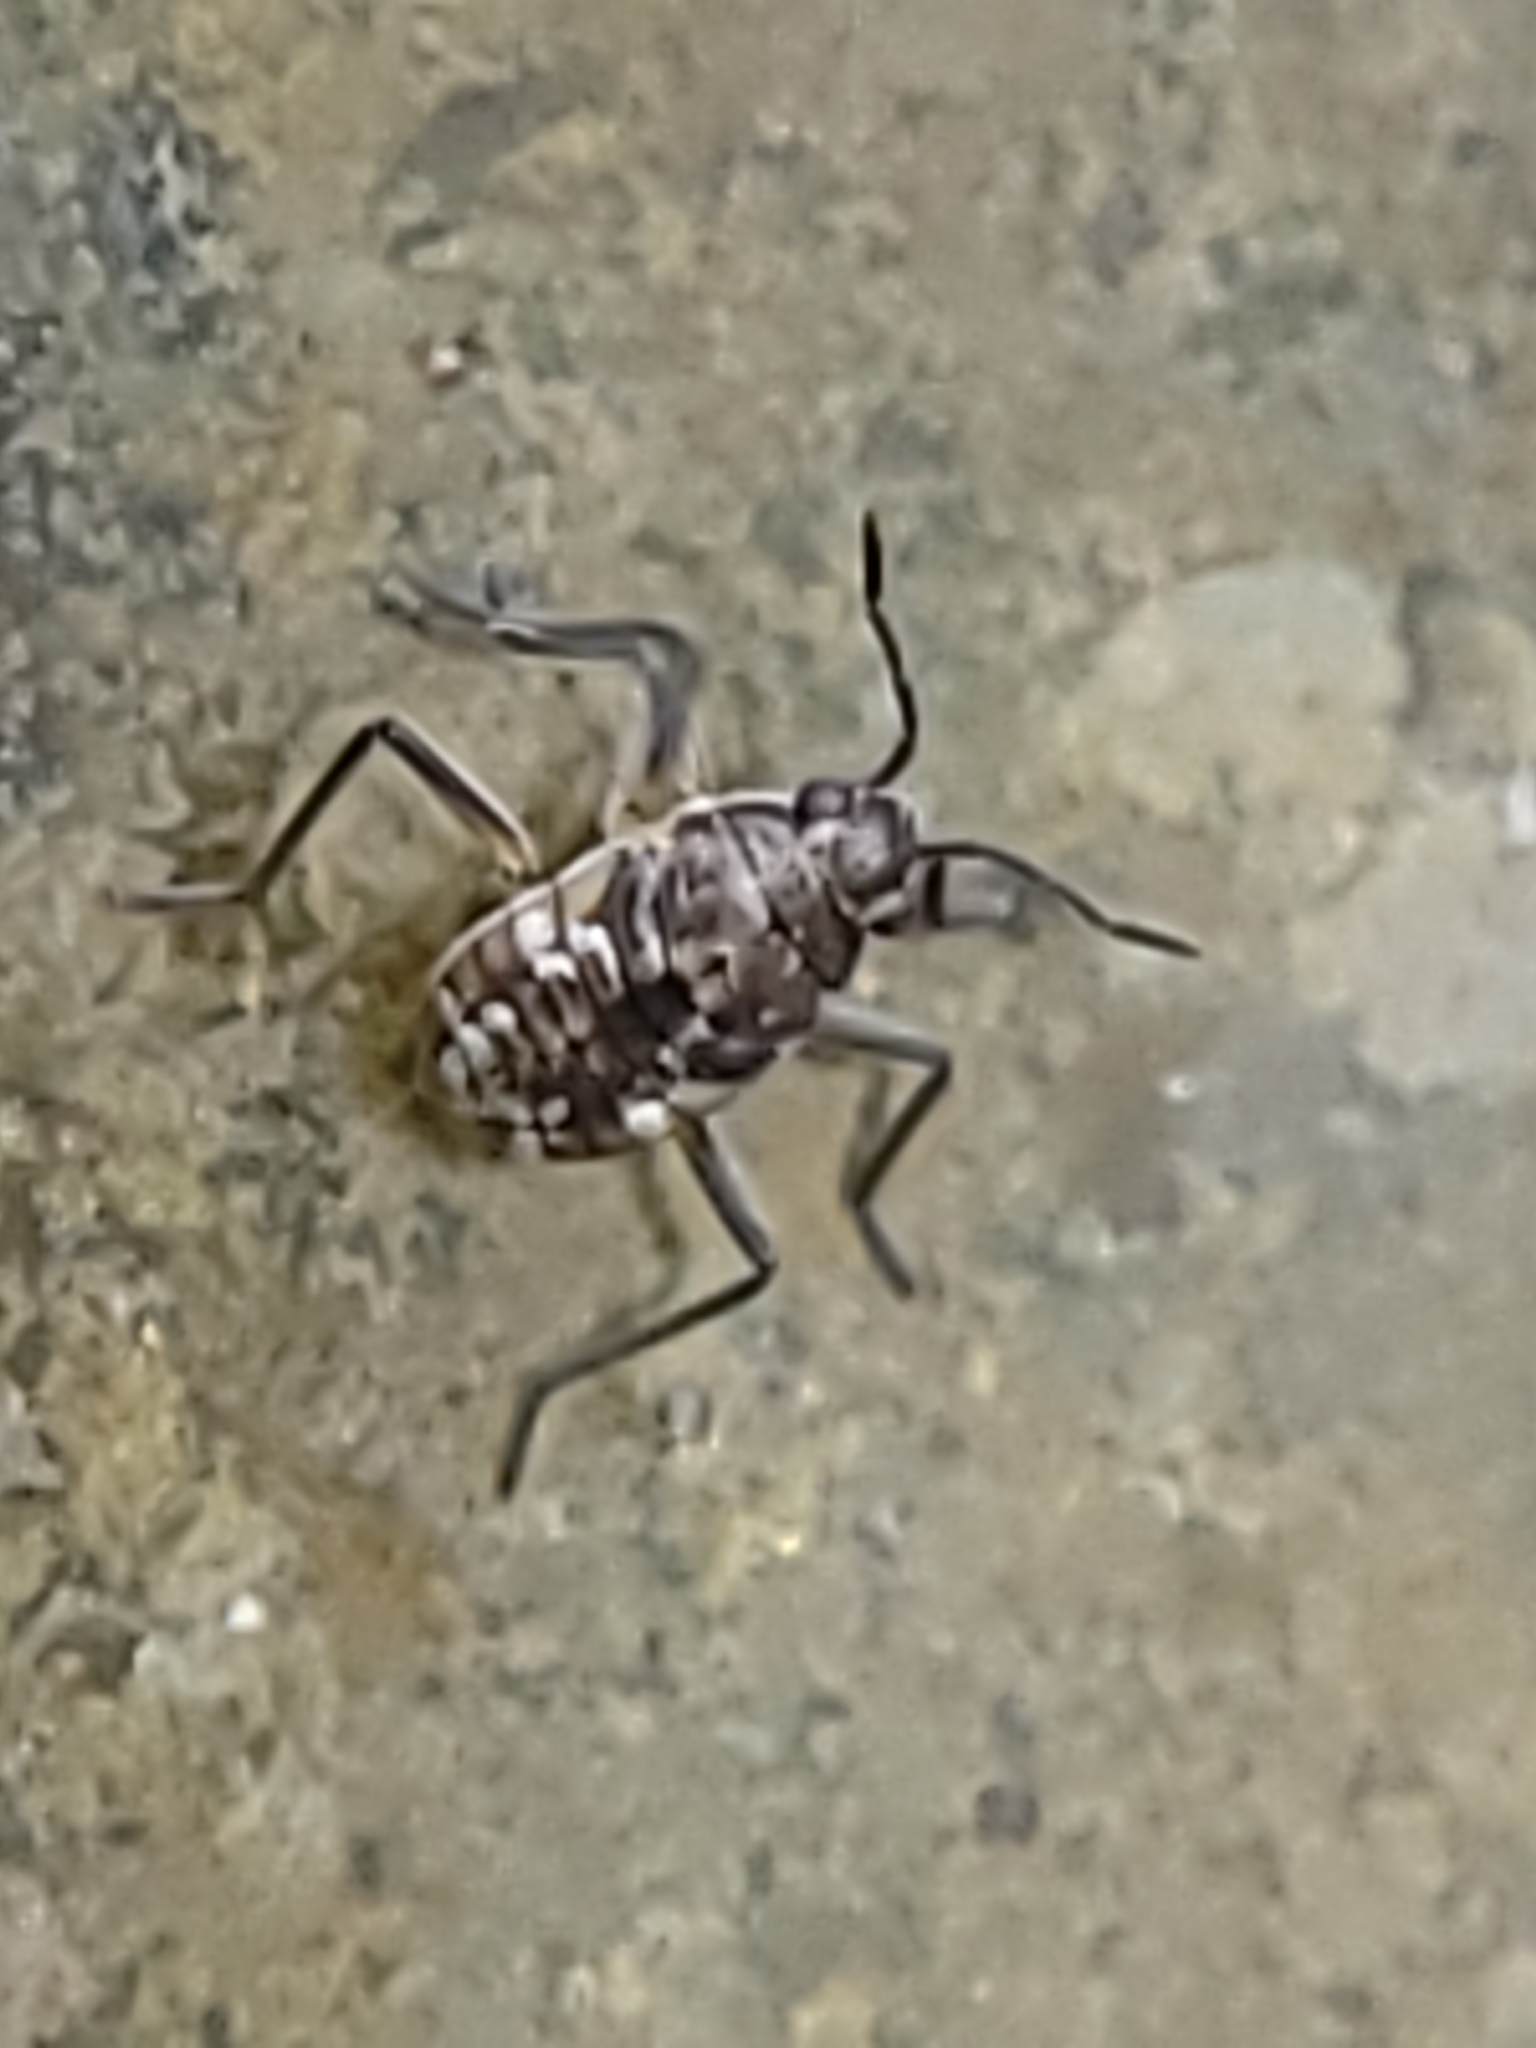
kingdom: Animalia
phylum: Arthropoda
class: Insecta
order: Hemiptera
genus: Kirkaldya
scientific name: Kirkaldya
